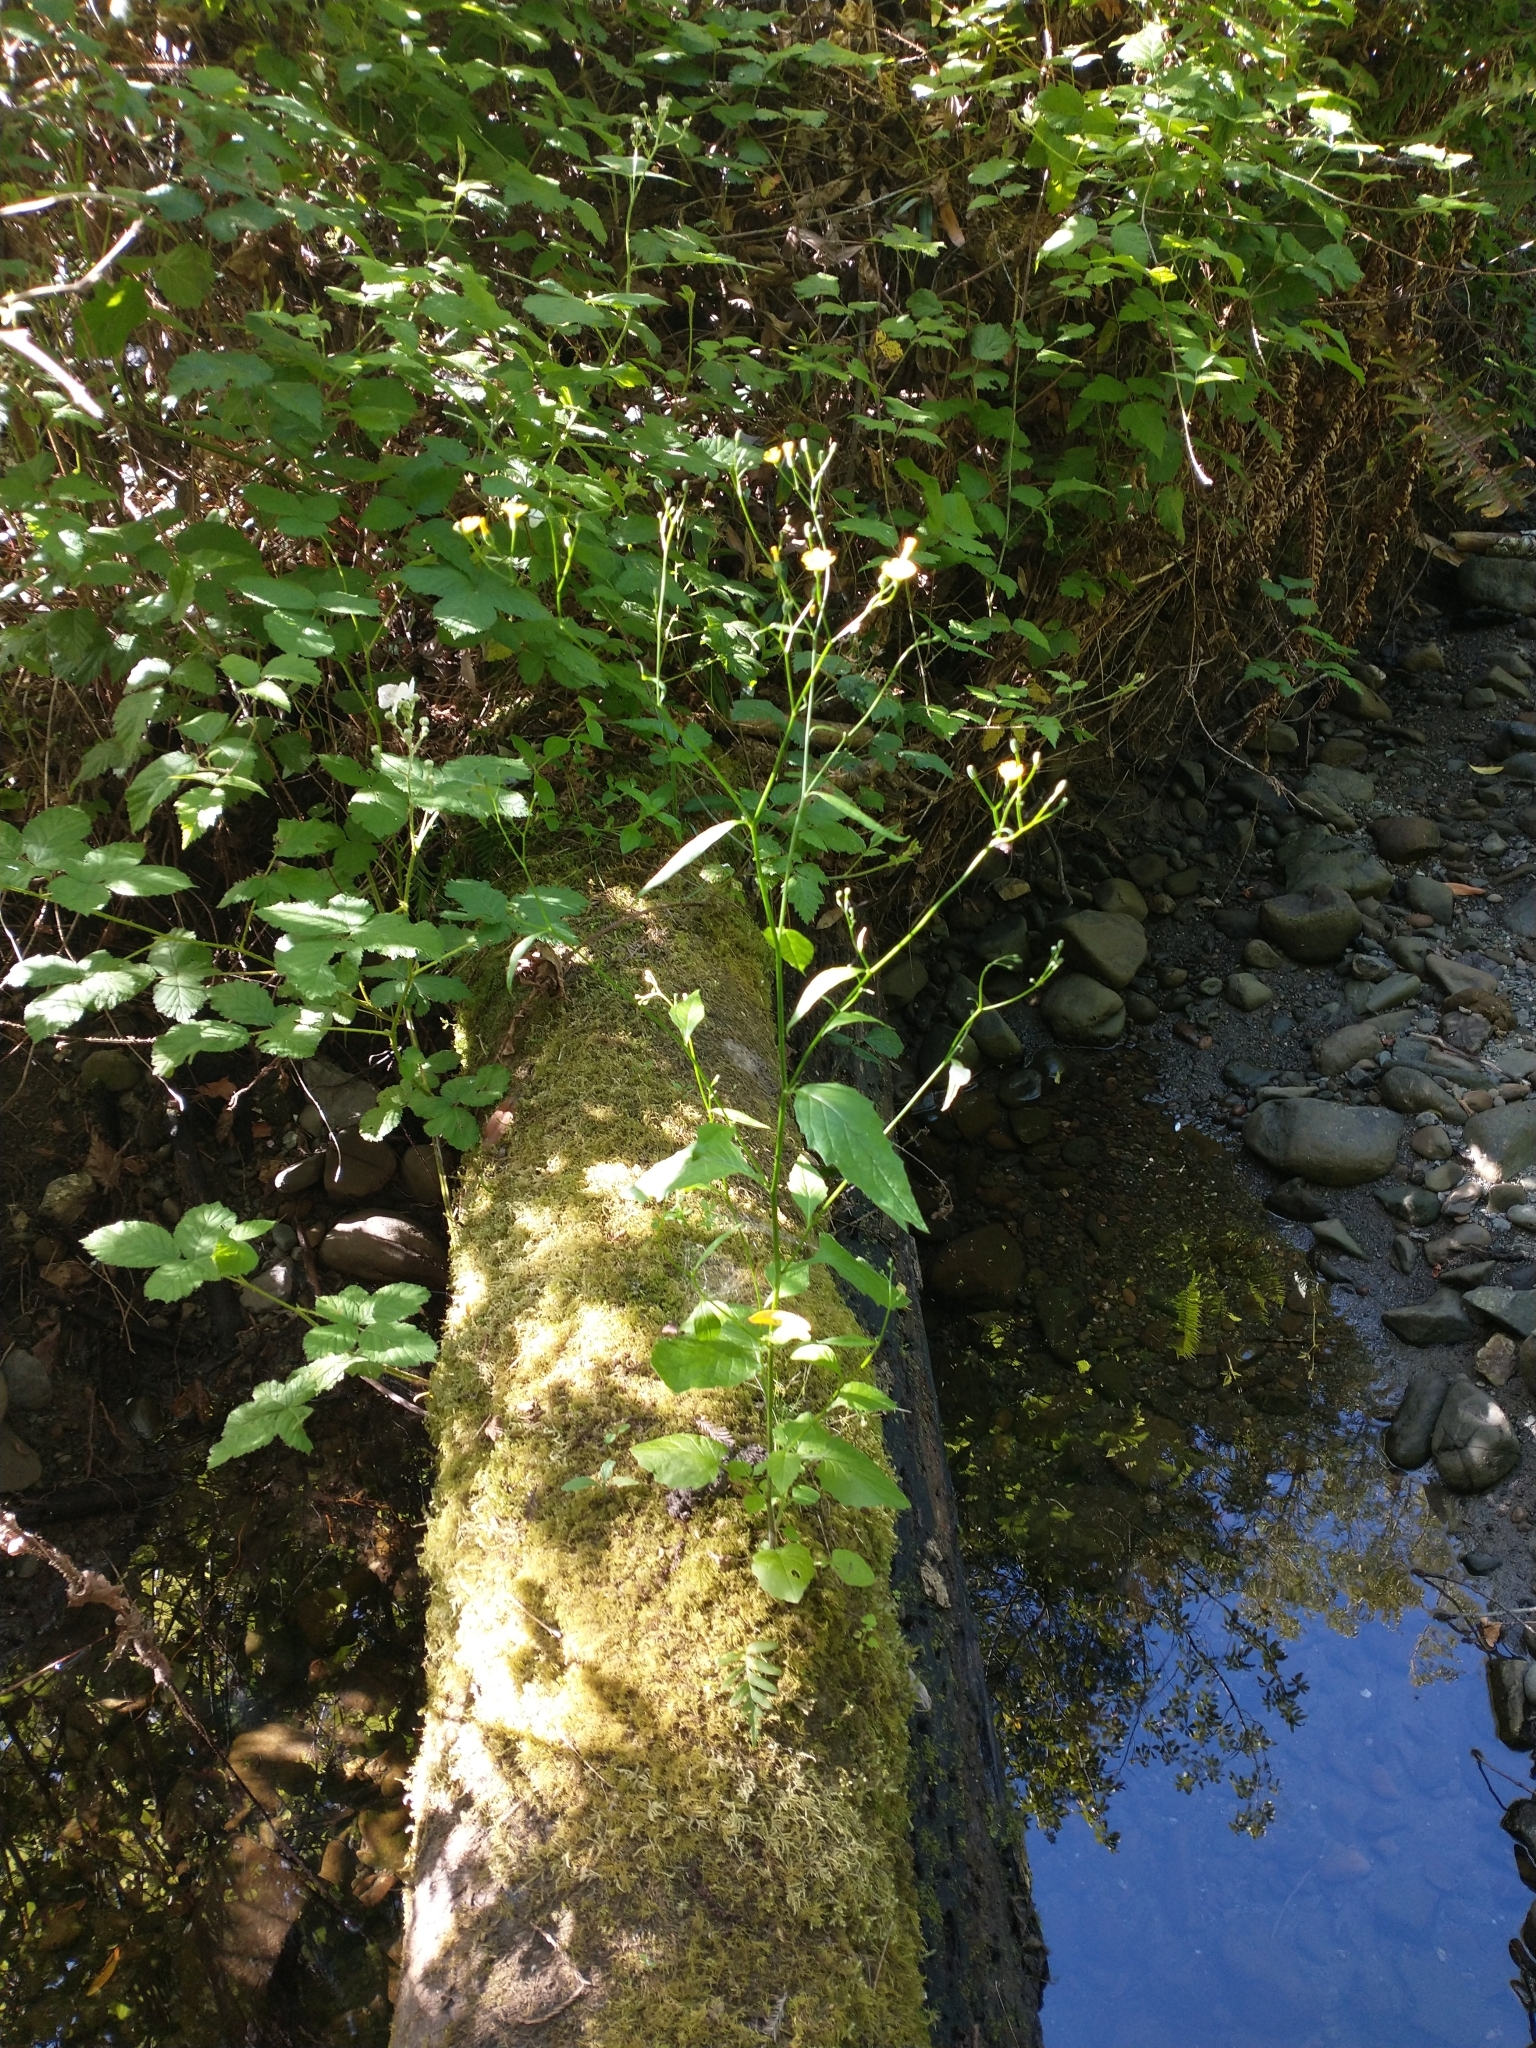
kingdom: Plantae
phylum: Tracheophyta
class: Magnoliopsida
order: Asterales
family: Asteraceae
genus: Lapsana
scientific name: Lapsana communis
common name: Nipplewort
